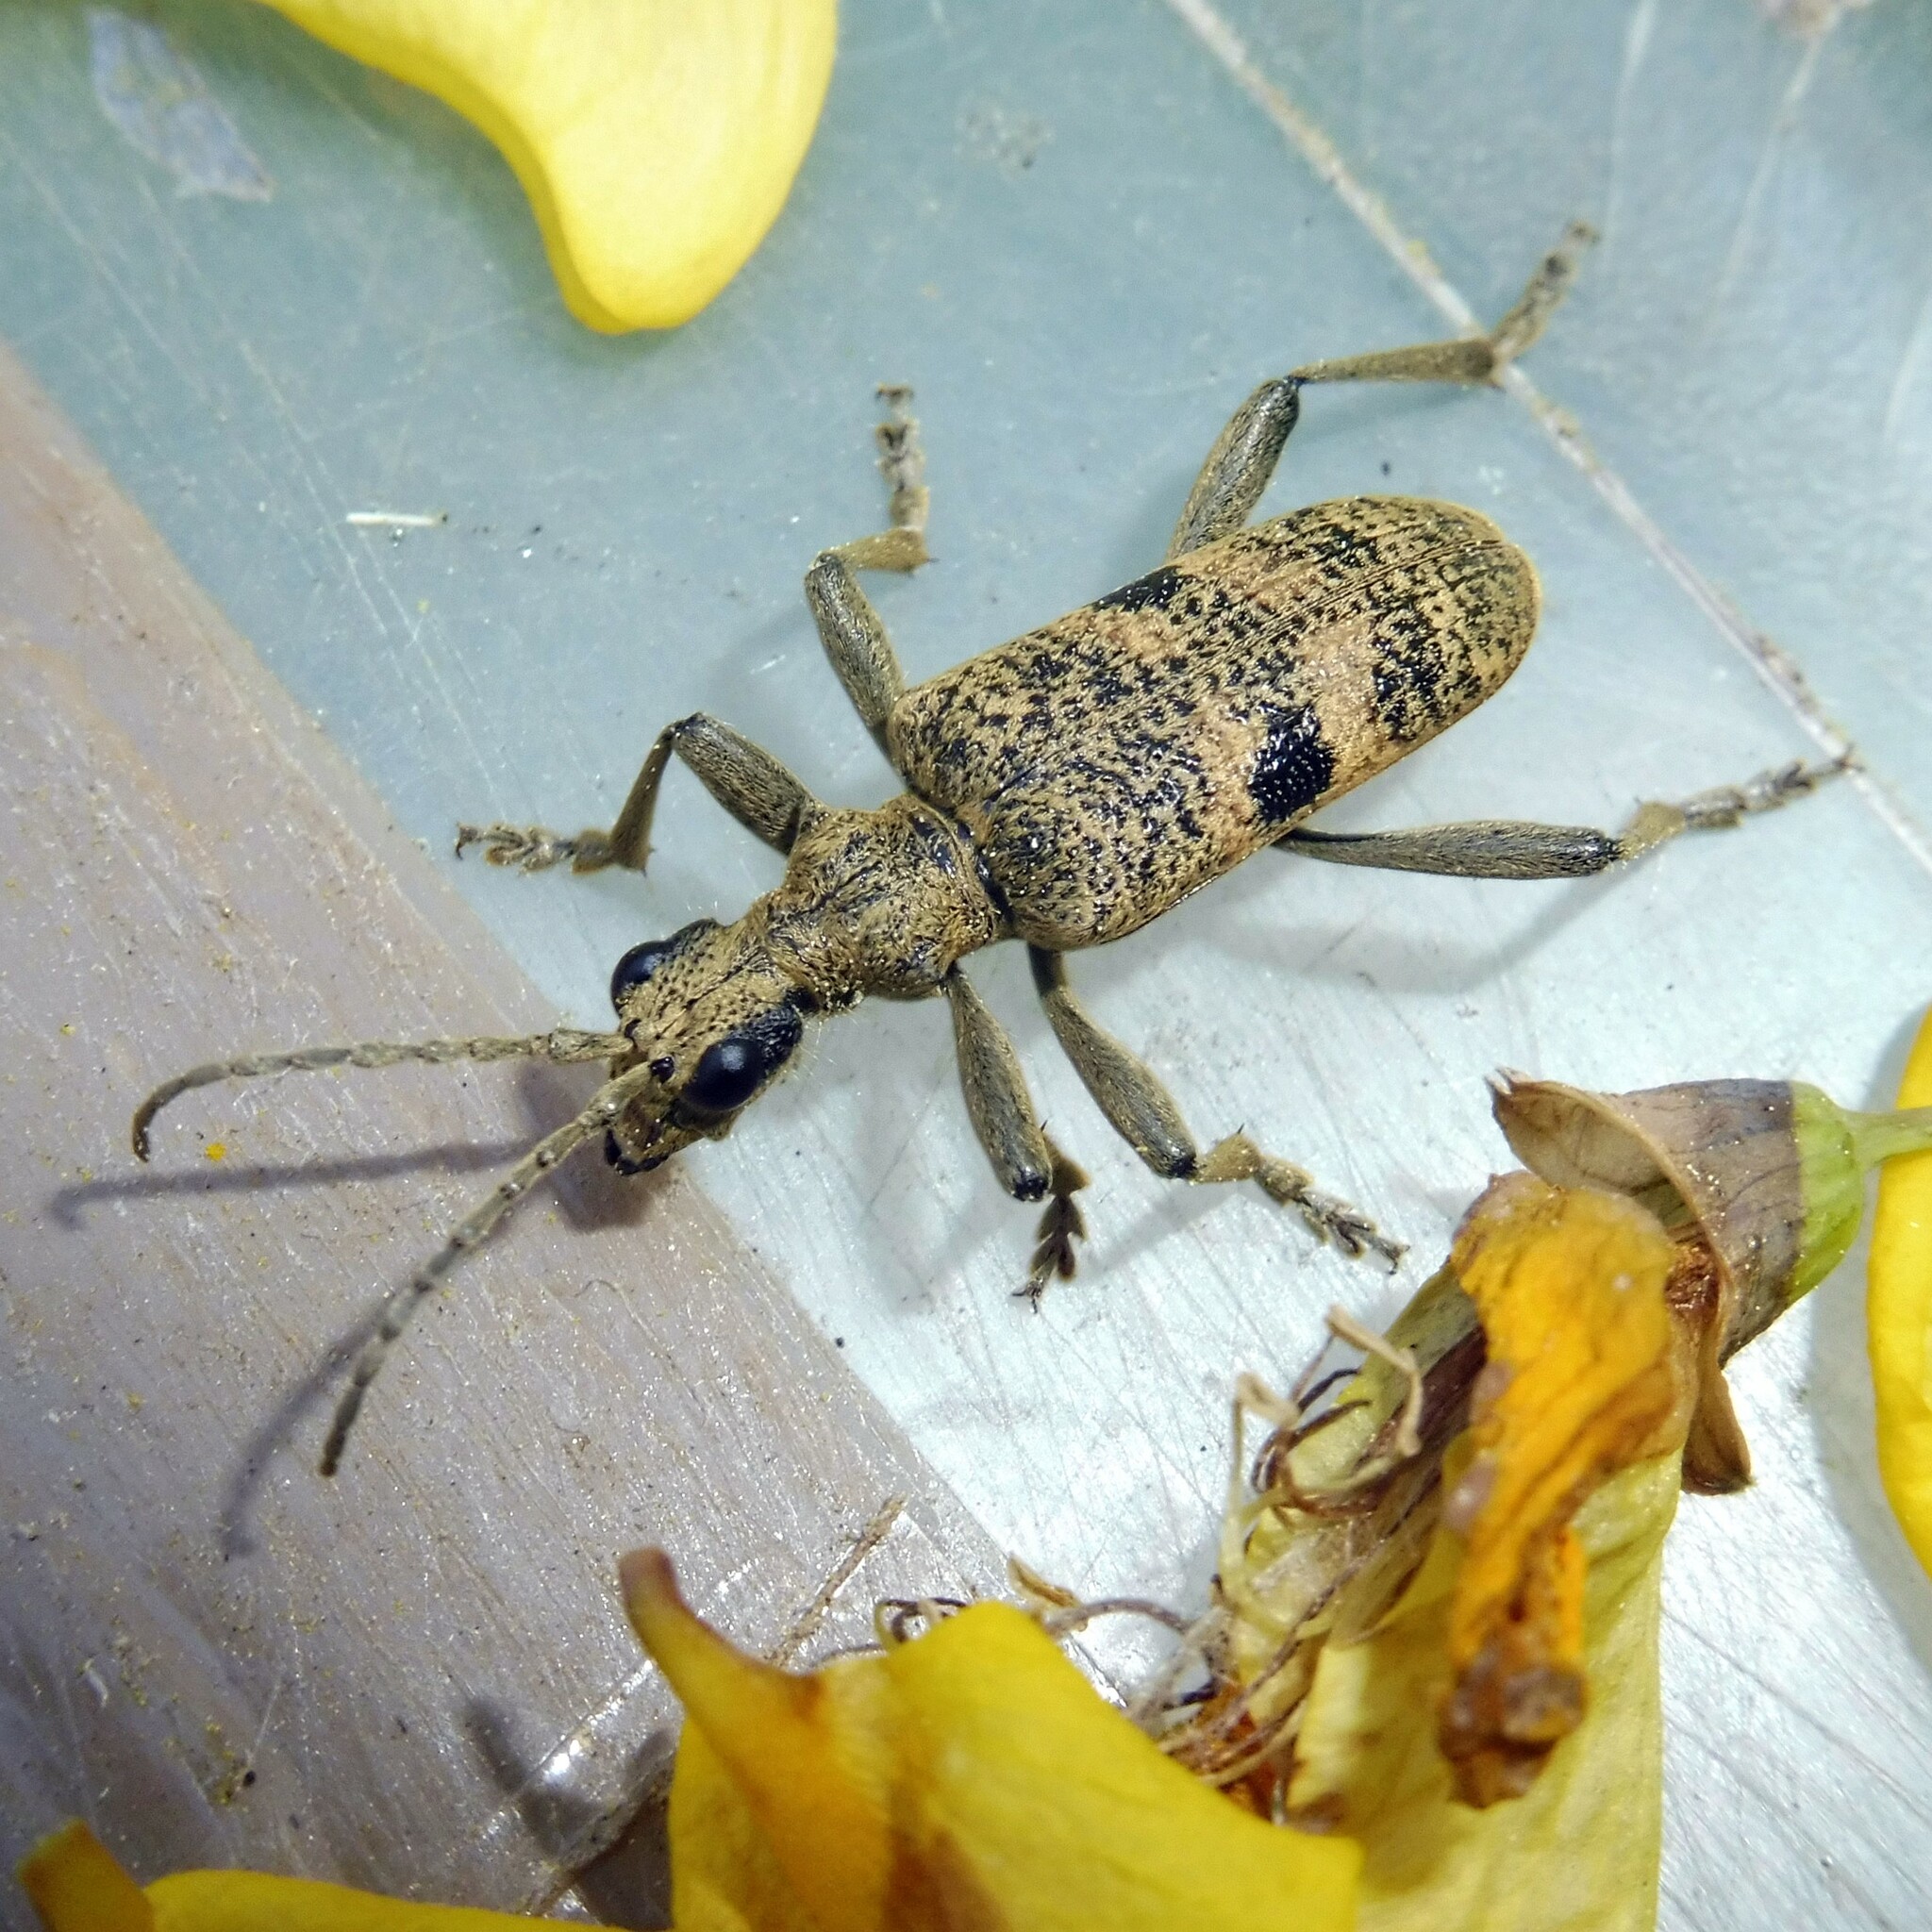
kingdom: Animalia
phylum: Arthropoda
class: Insecta
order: Coleoptera
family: Cerambycidae
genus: Rhagium
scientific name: Rhagium mordax
